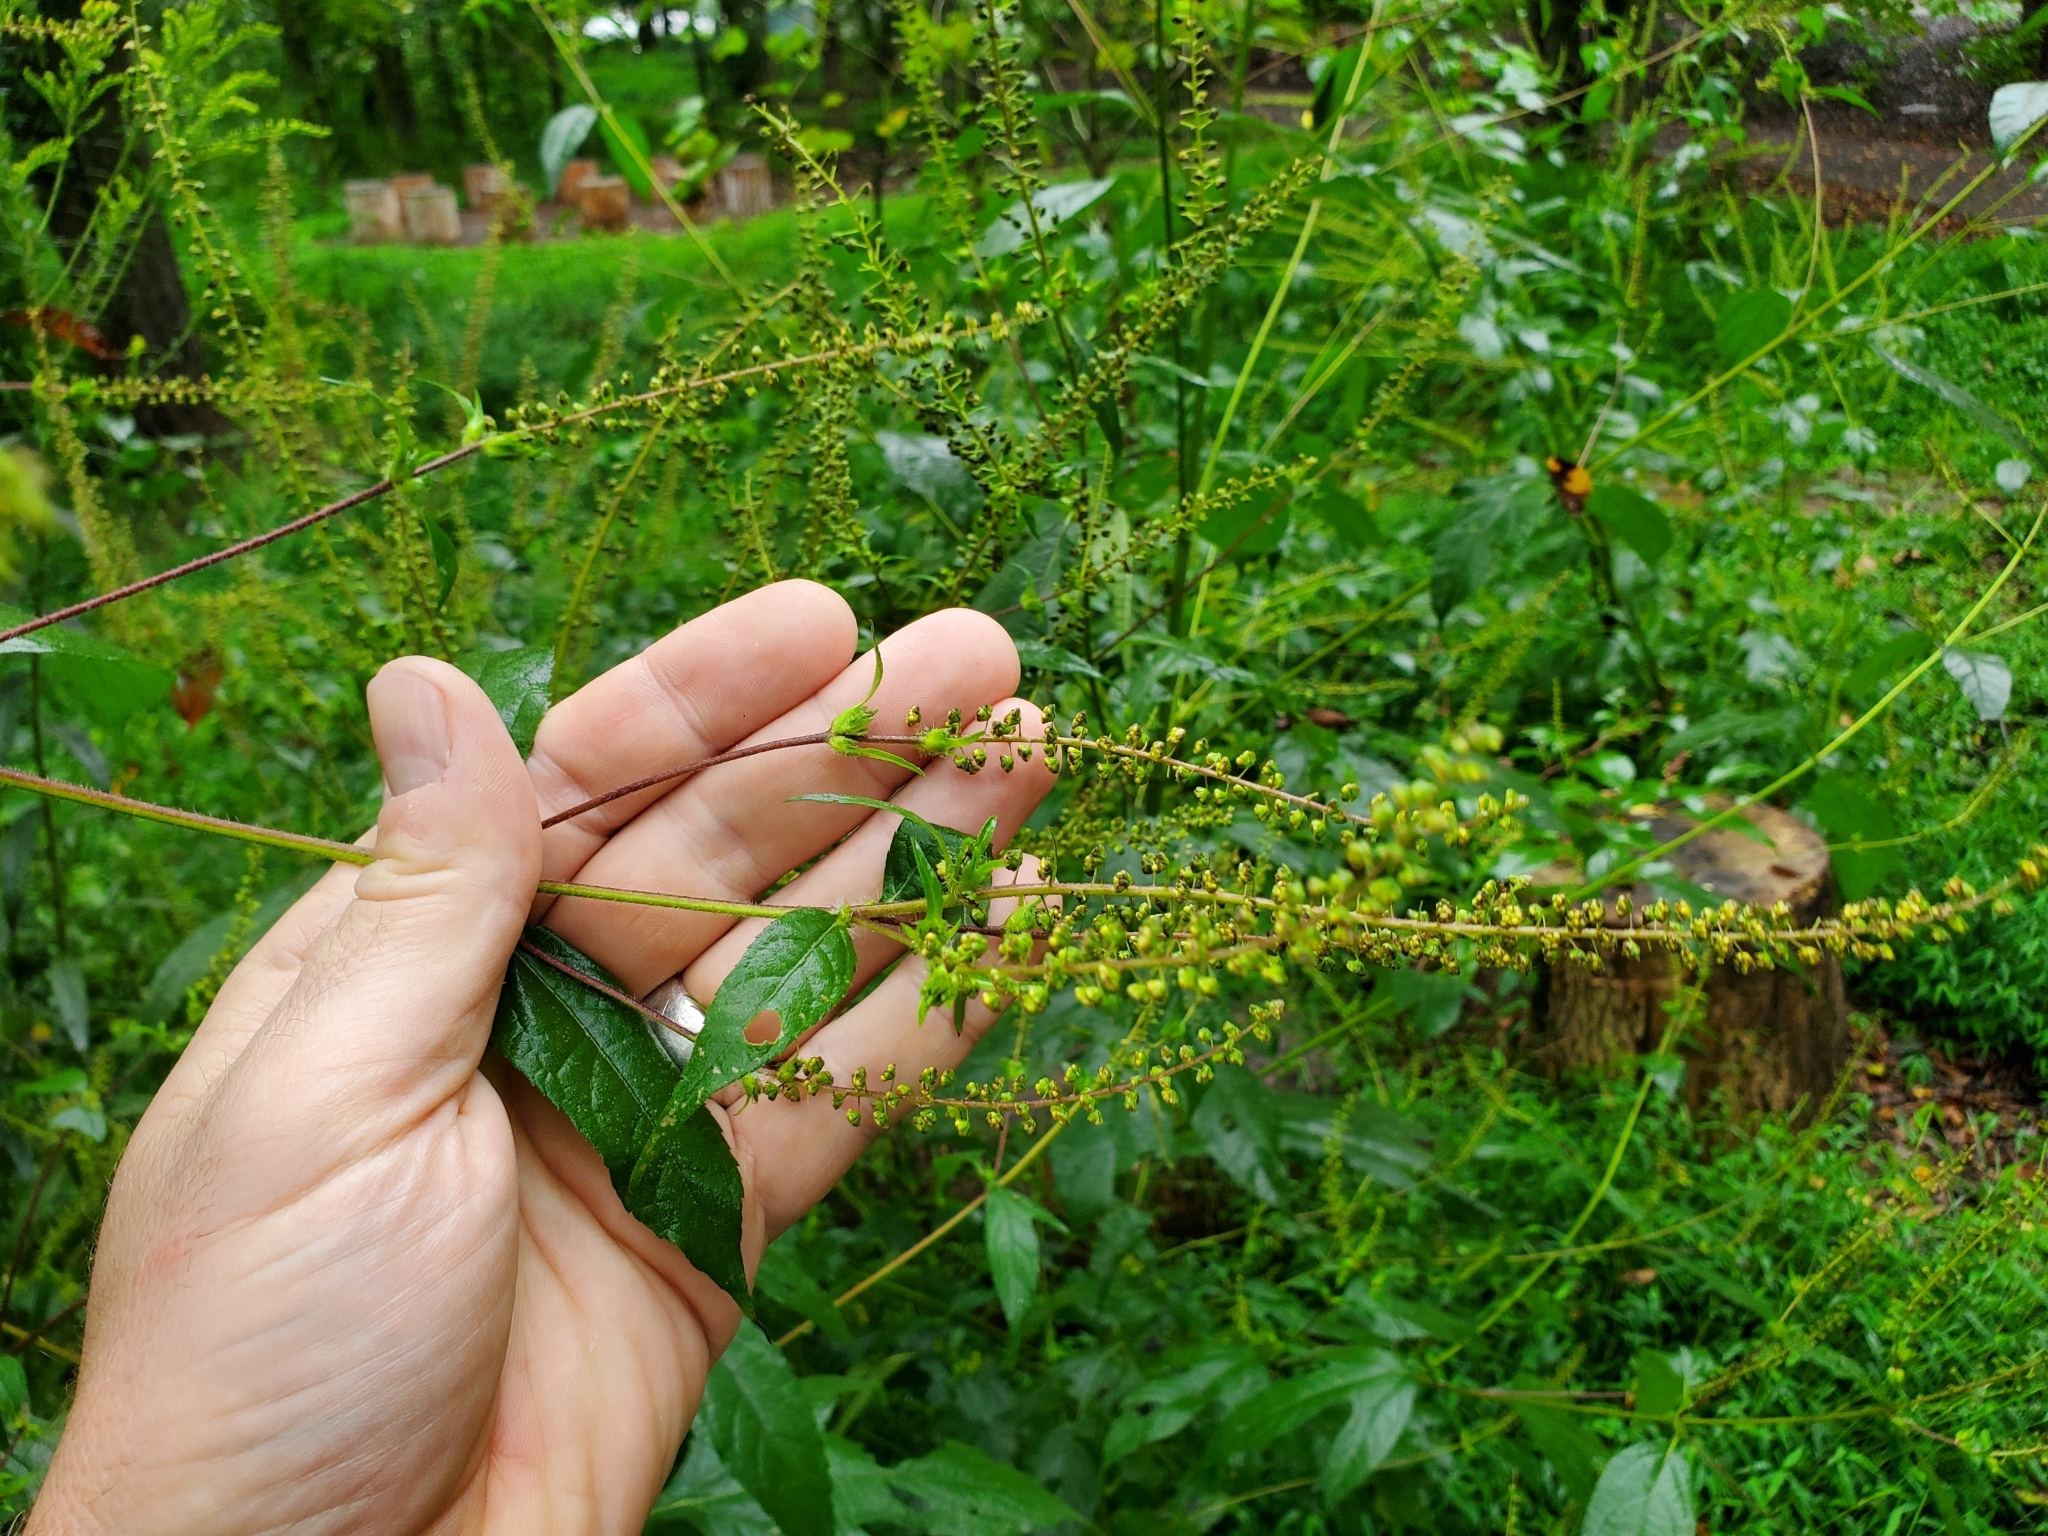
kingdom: Plantae
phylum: Tracheophyta
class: Magnoliopsida
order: Asterales
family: Asteraceae
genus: Ambrosia
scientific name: Ambrosia trifida
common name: Giant ragweed
